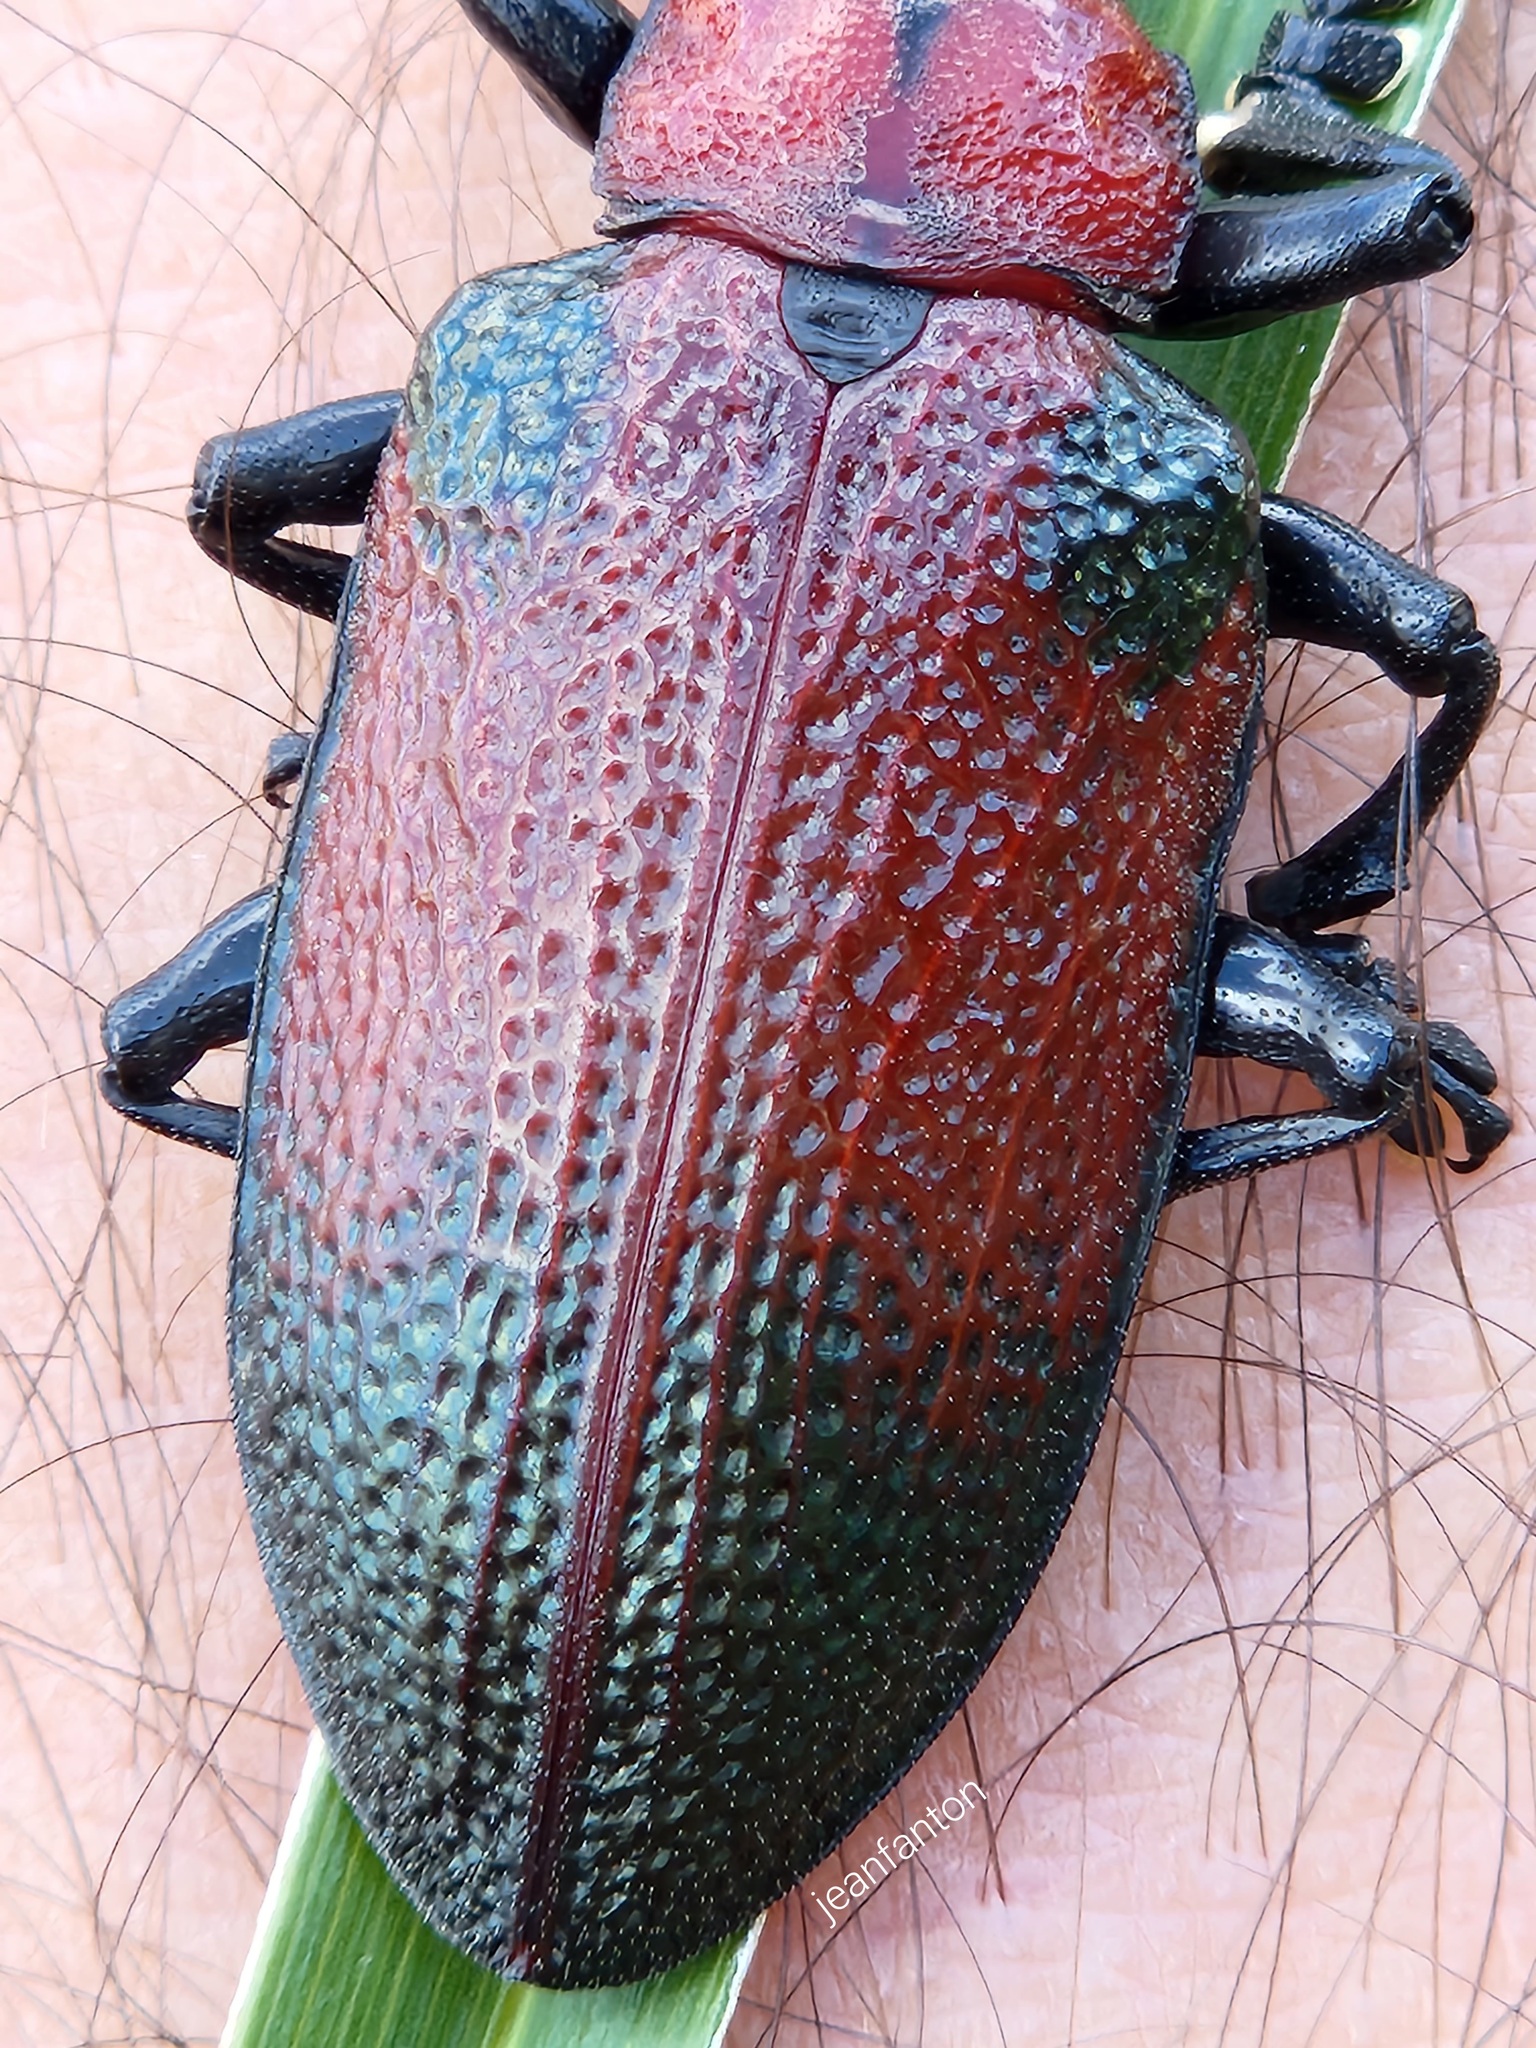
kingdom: Animalia
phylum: Arthropoda
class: Insecta
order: Coleoptera
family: Chrysomelidae
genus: Coraliomela
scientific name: Coraliomela aeneoplagiata
